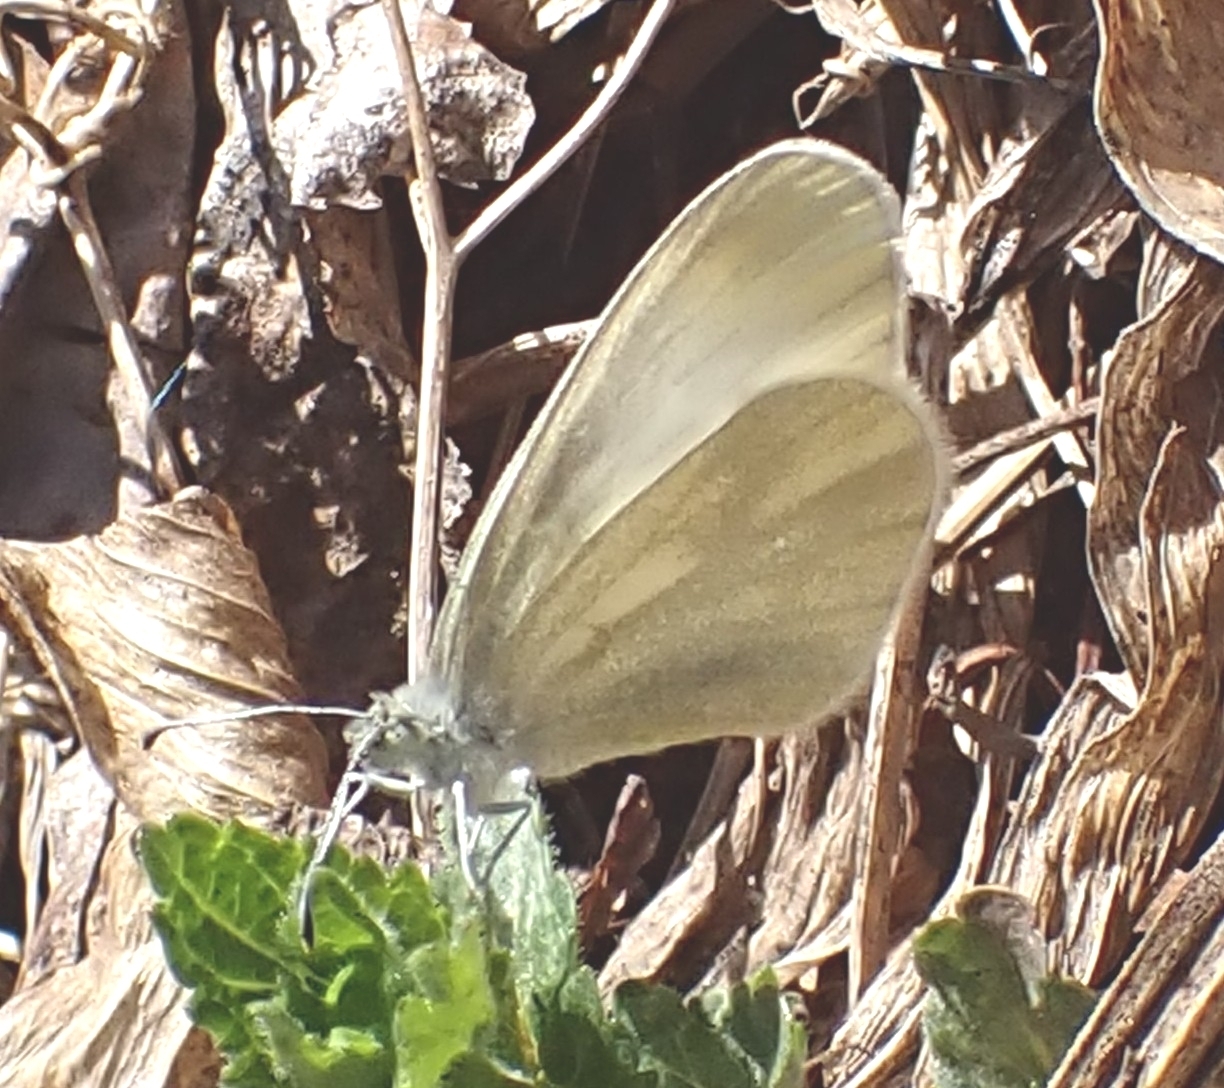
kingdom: Animalia
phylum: Arthropoda
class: Insecta
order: Lepidoptera
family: Pieridae
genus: Leptidea
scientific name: Leptidea sinapis
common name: Wood white
